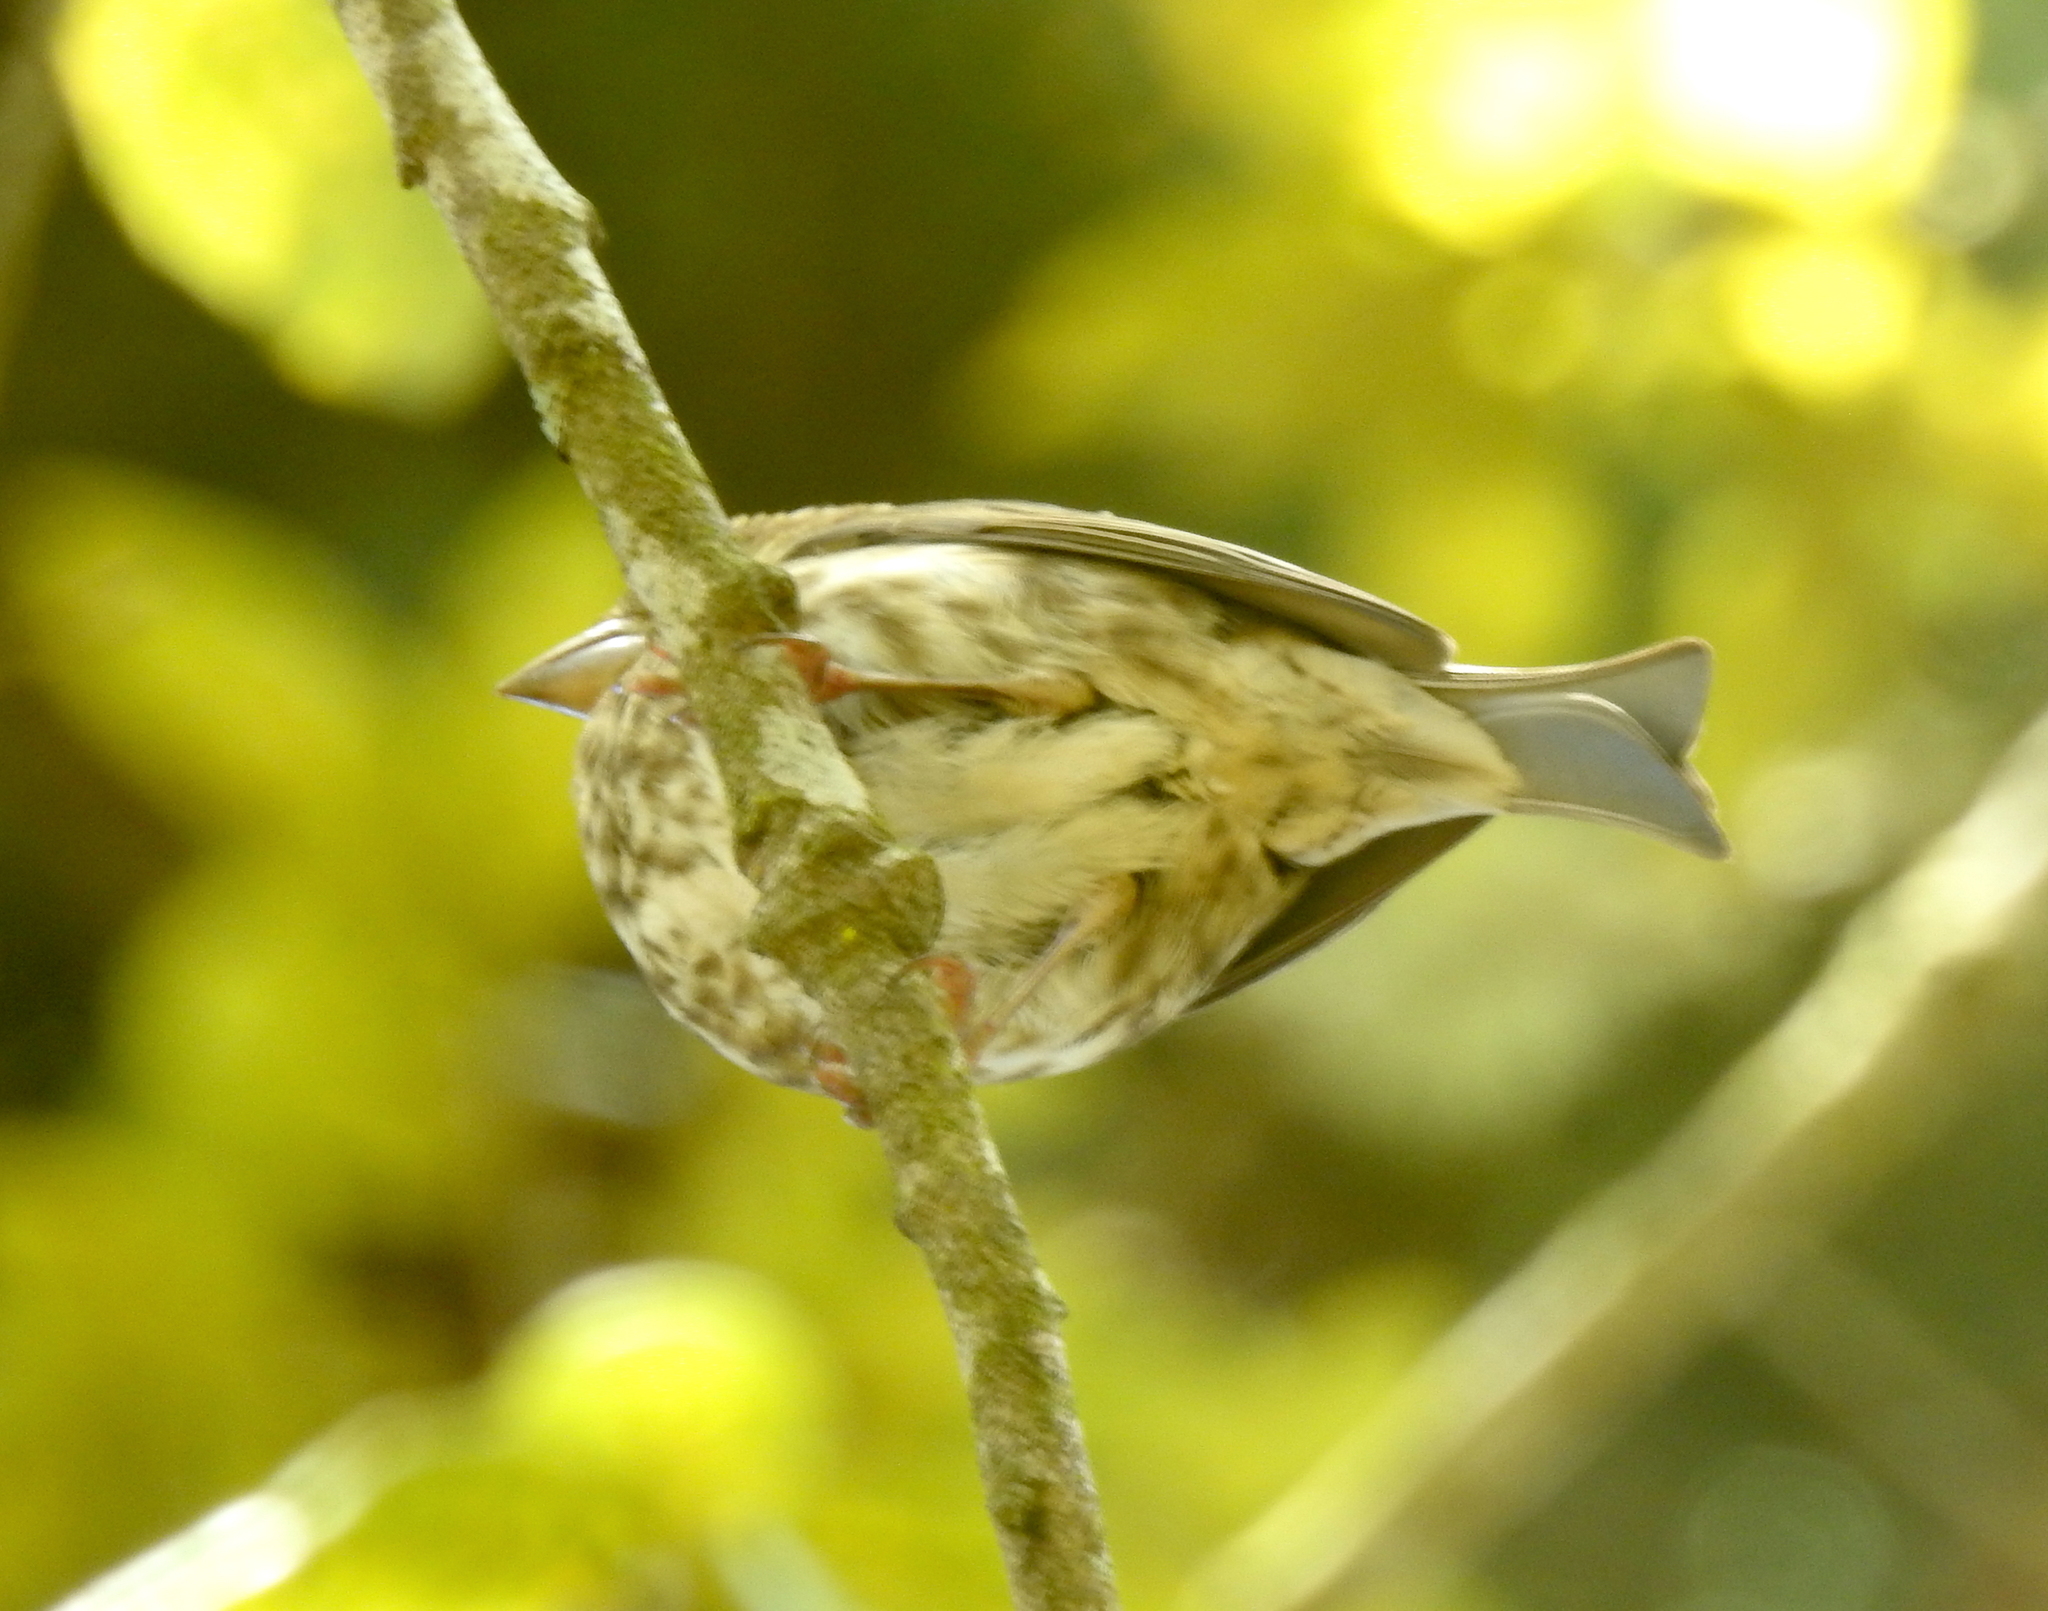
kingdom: Animalia
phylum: Chordata
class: Aves
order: Passeriformes
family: Fringillidae
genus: Haemorhous
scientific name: Haemorhous purpureus
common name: Purple finch
